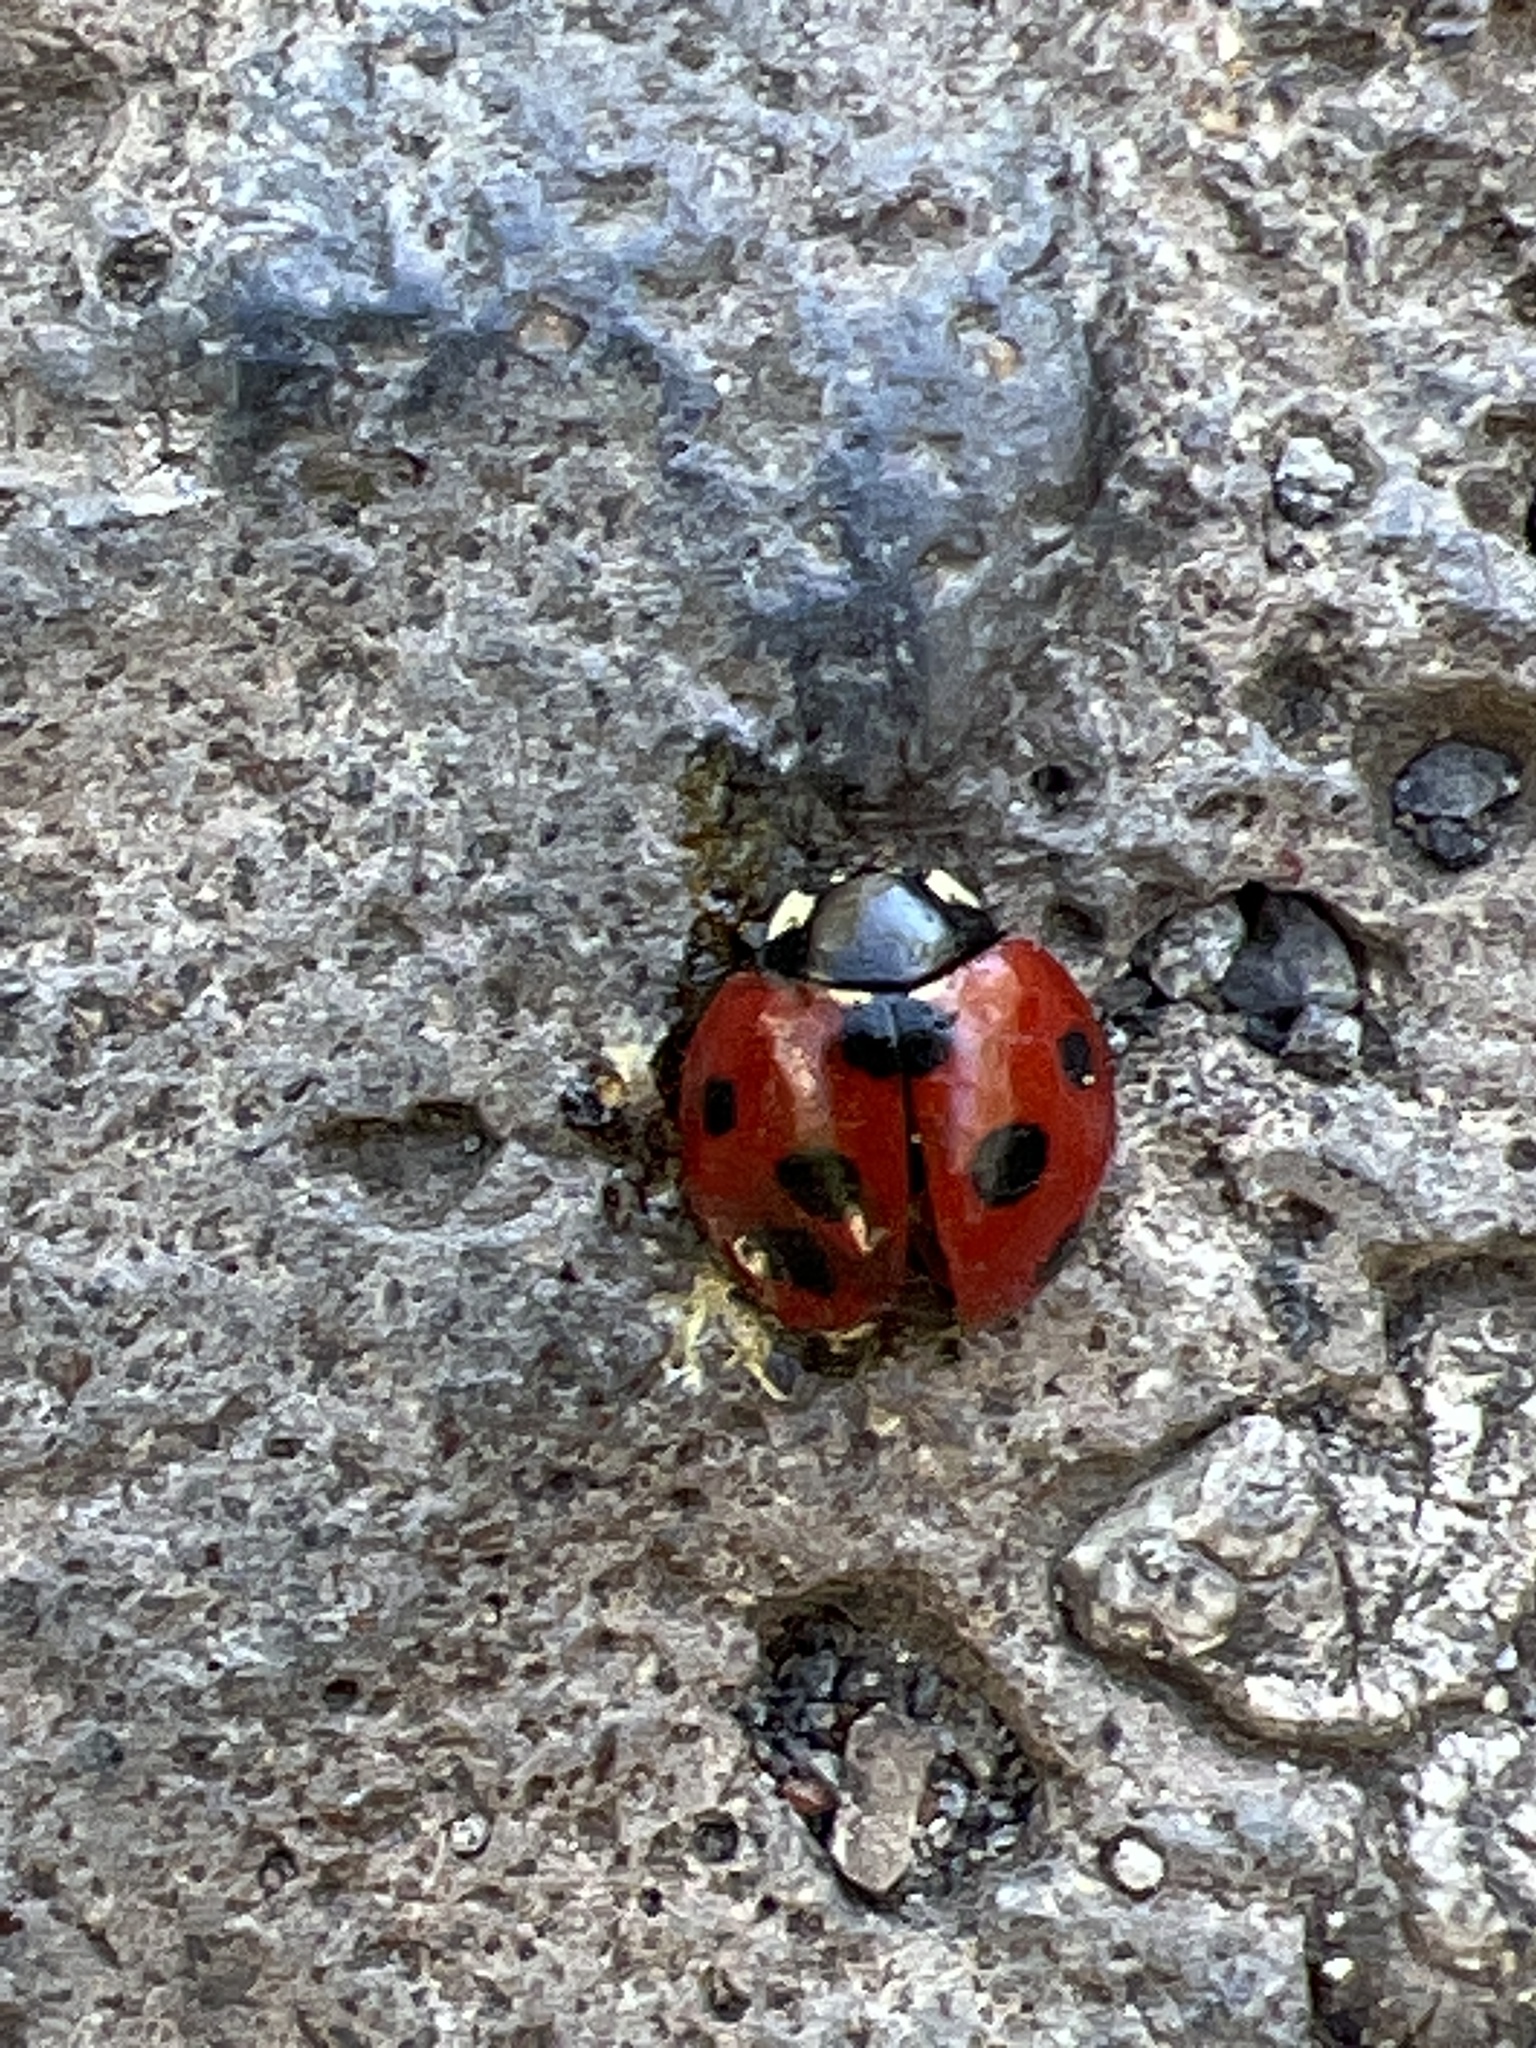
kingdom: Animalia
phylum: Arthropoda
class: Insecta
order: Coleoptera
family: Coccinellidae
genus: Coccinella
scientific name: Coccinella algerica
